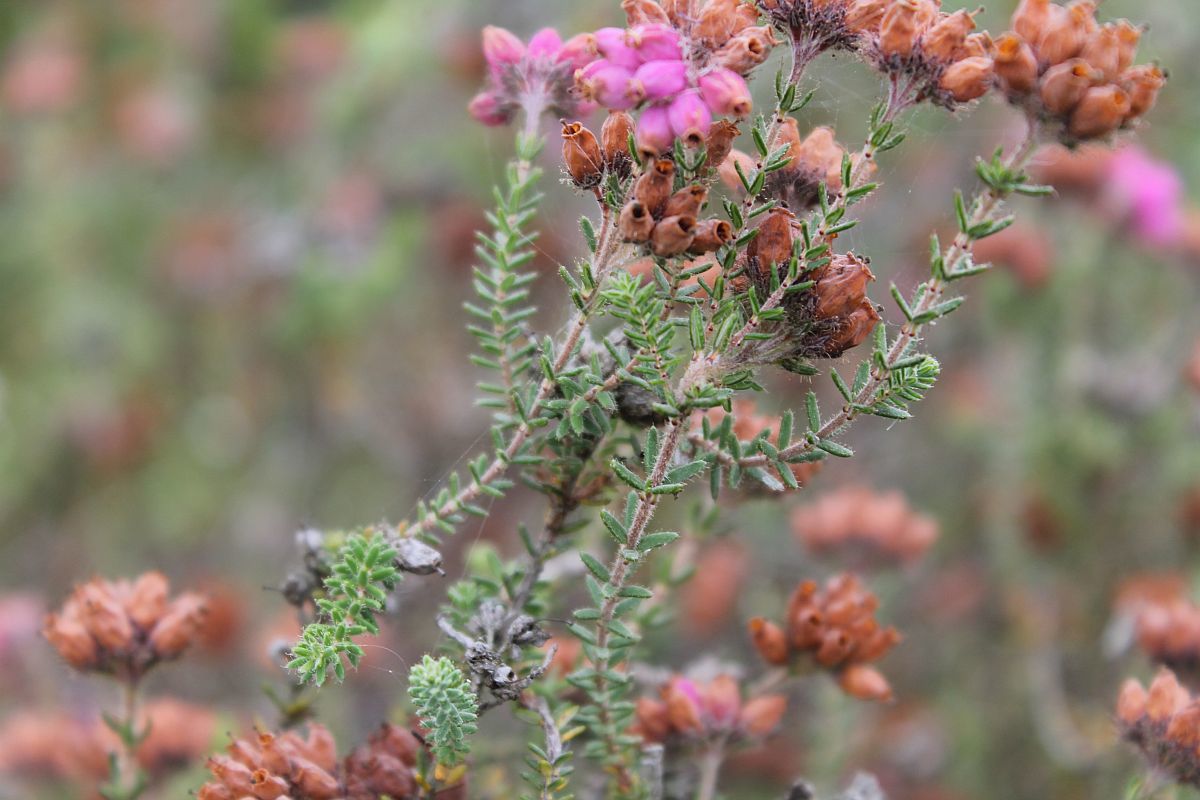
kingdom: Plantae
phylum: Tracheophyta
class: Magnoliopsida
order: Ericales
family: Ericaceae
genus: Erica
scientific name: Erica tetralix
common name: Cross-leaved heath
